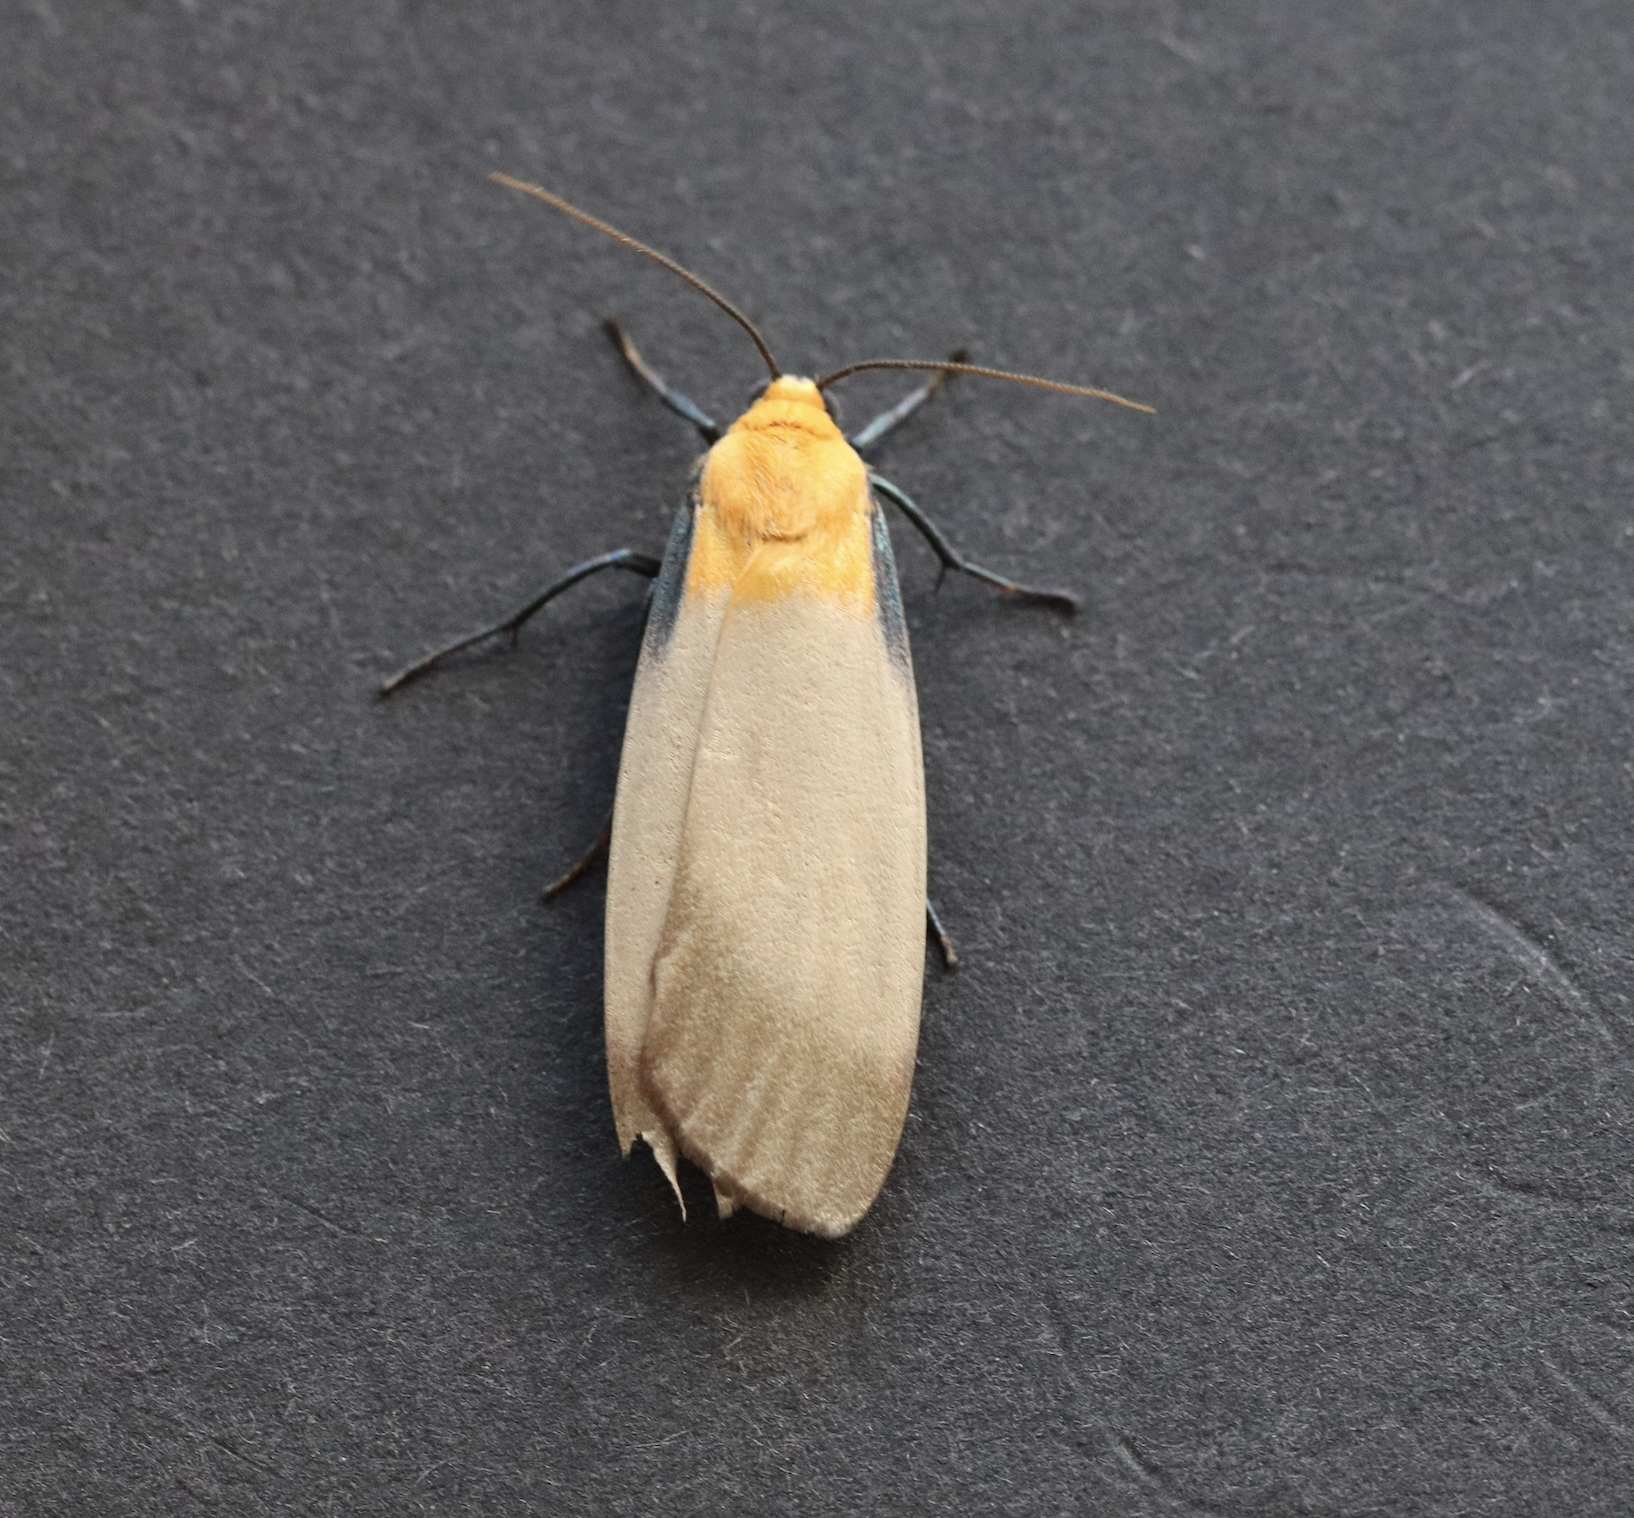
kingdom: Animalia
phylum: Arthropoda
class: Insecta
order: Lepidoptera
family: Erebidae
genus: Lithosia
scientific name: Lithosia quadra
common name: Four-spotted footman
